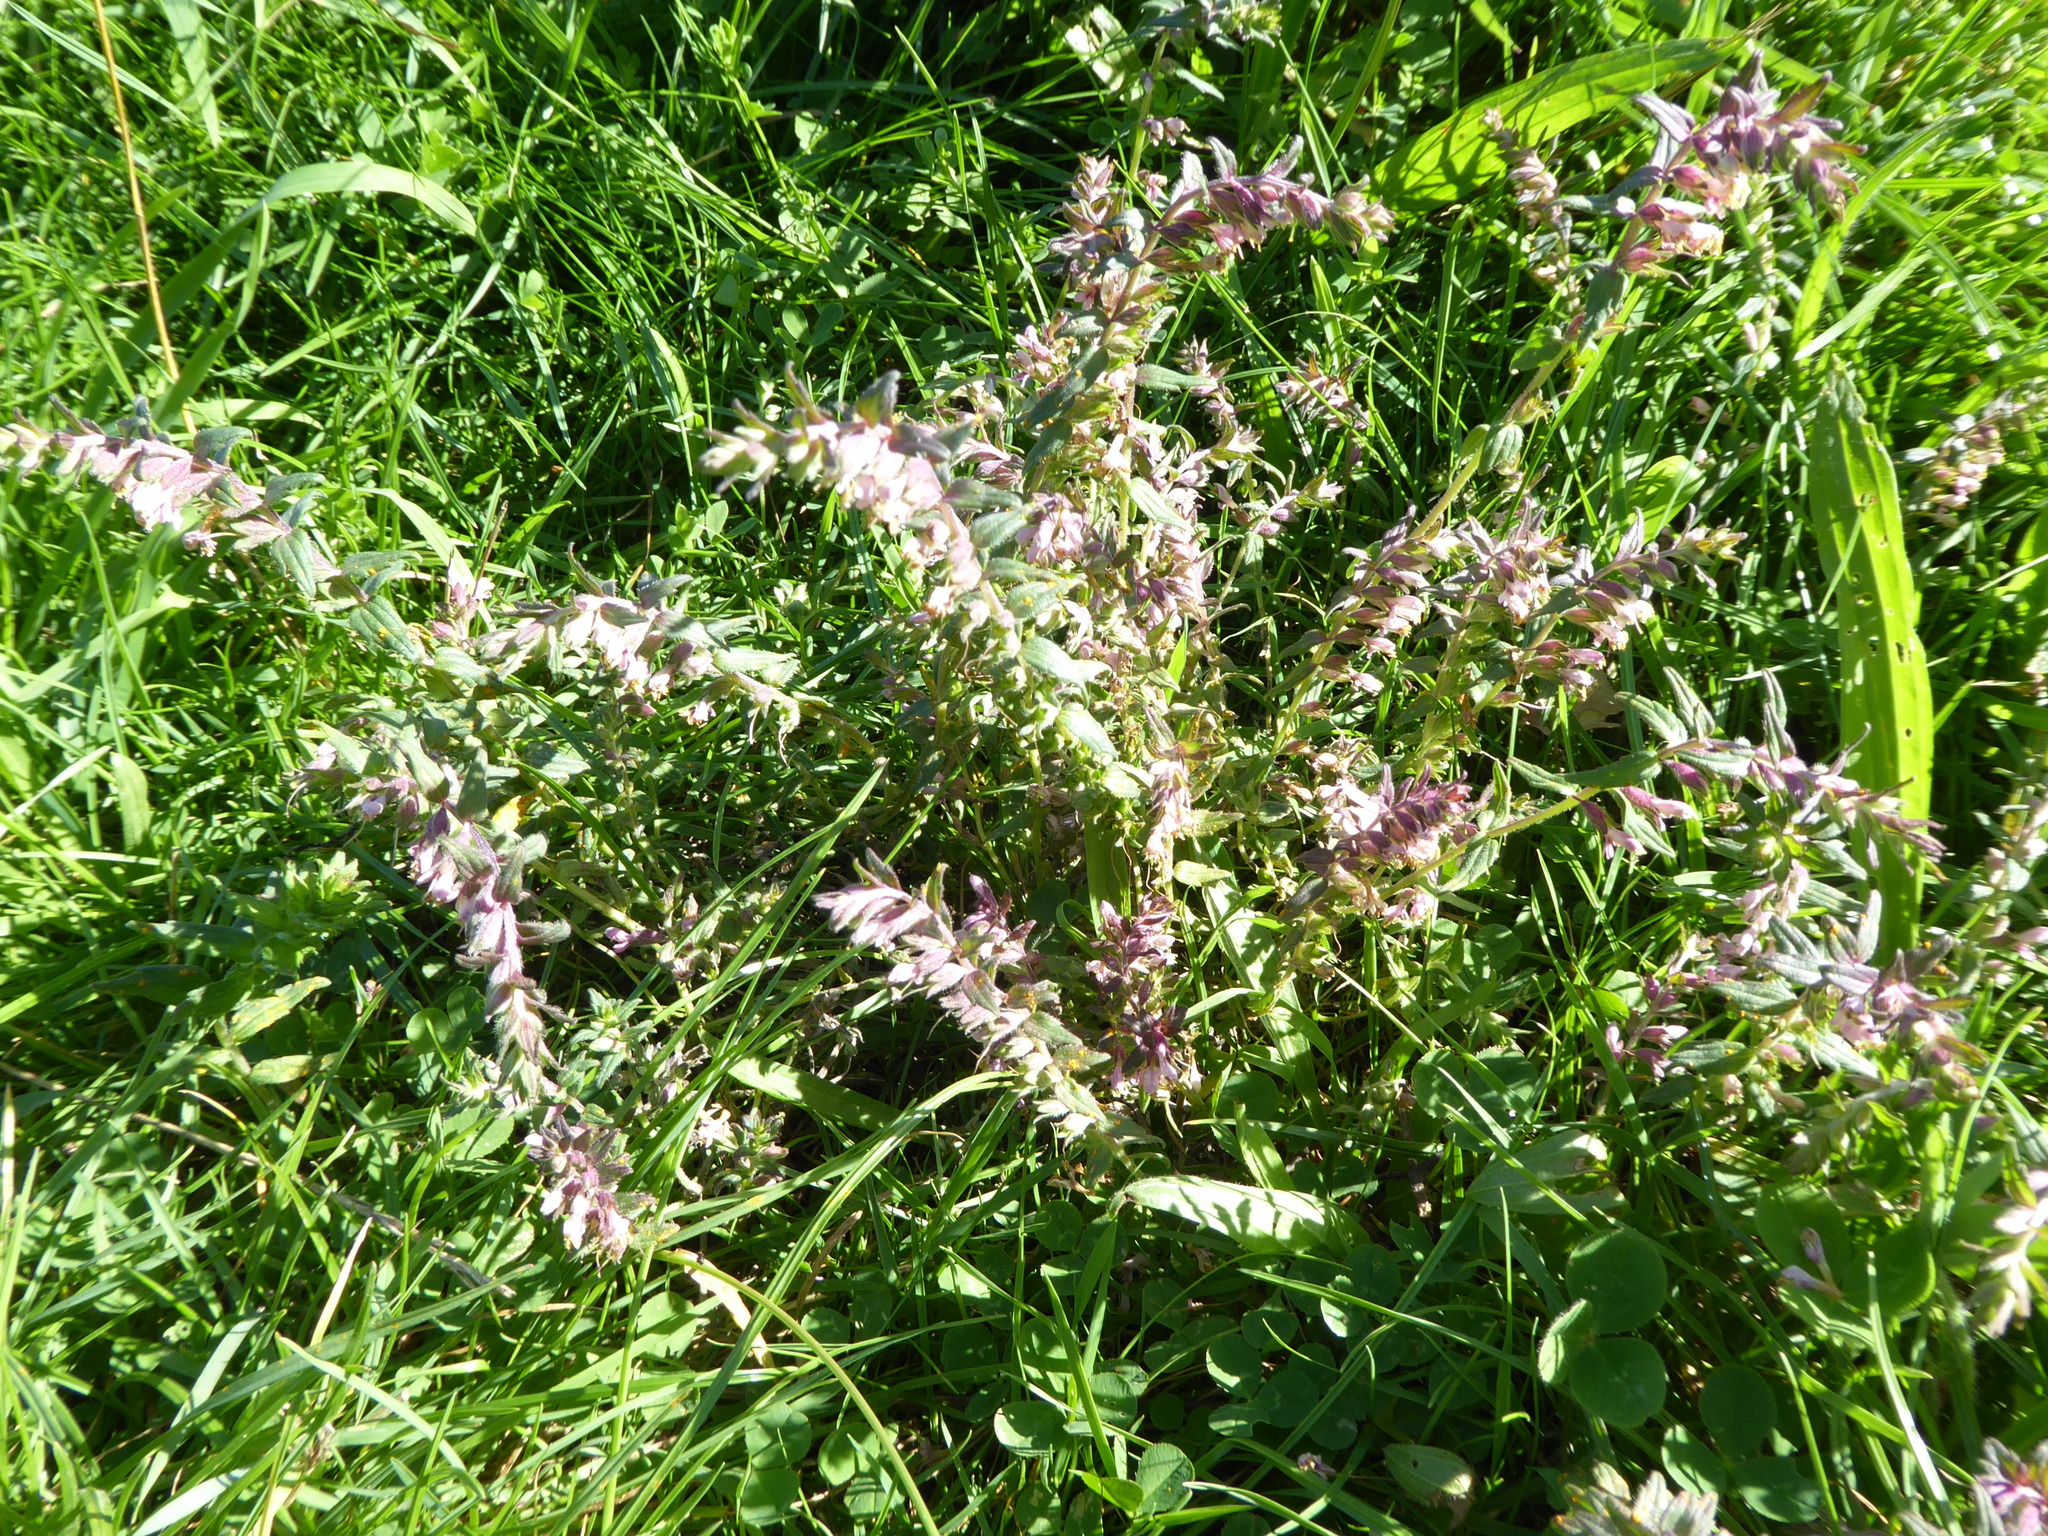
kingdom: Plantae
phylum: Tracheophyta
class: Magnoliopsida
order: Lamiales
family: Orobanchaceae
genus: Odontites
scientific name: Odontites vulgaris
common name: Broomrape
